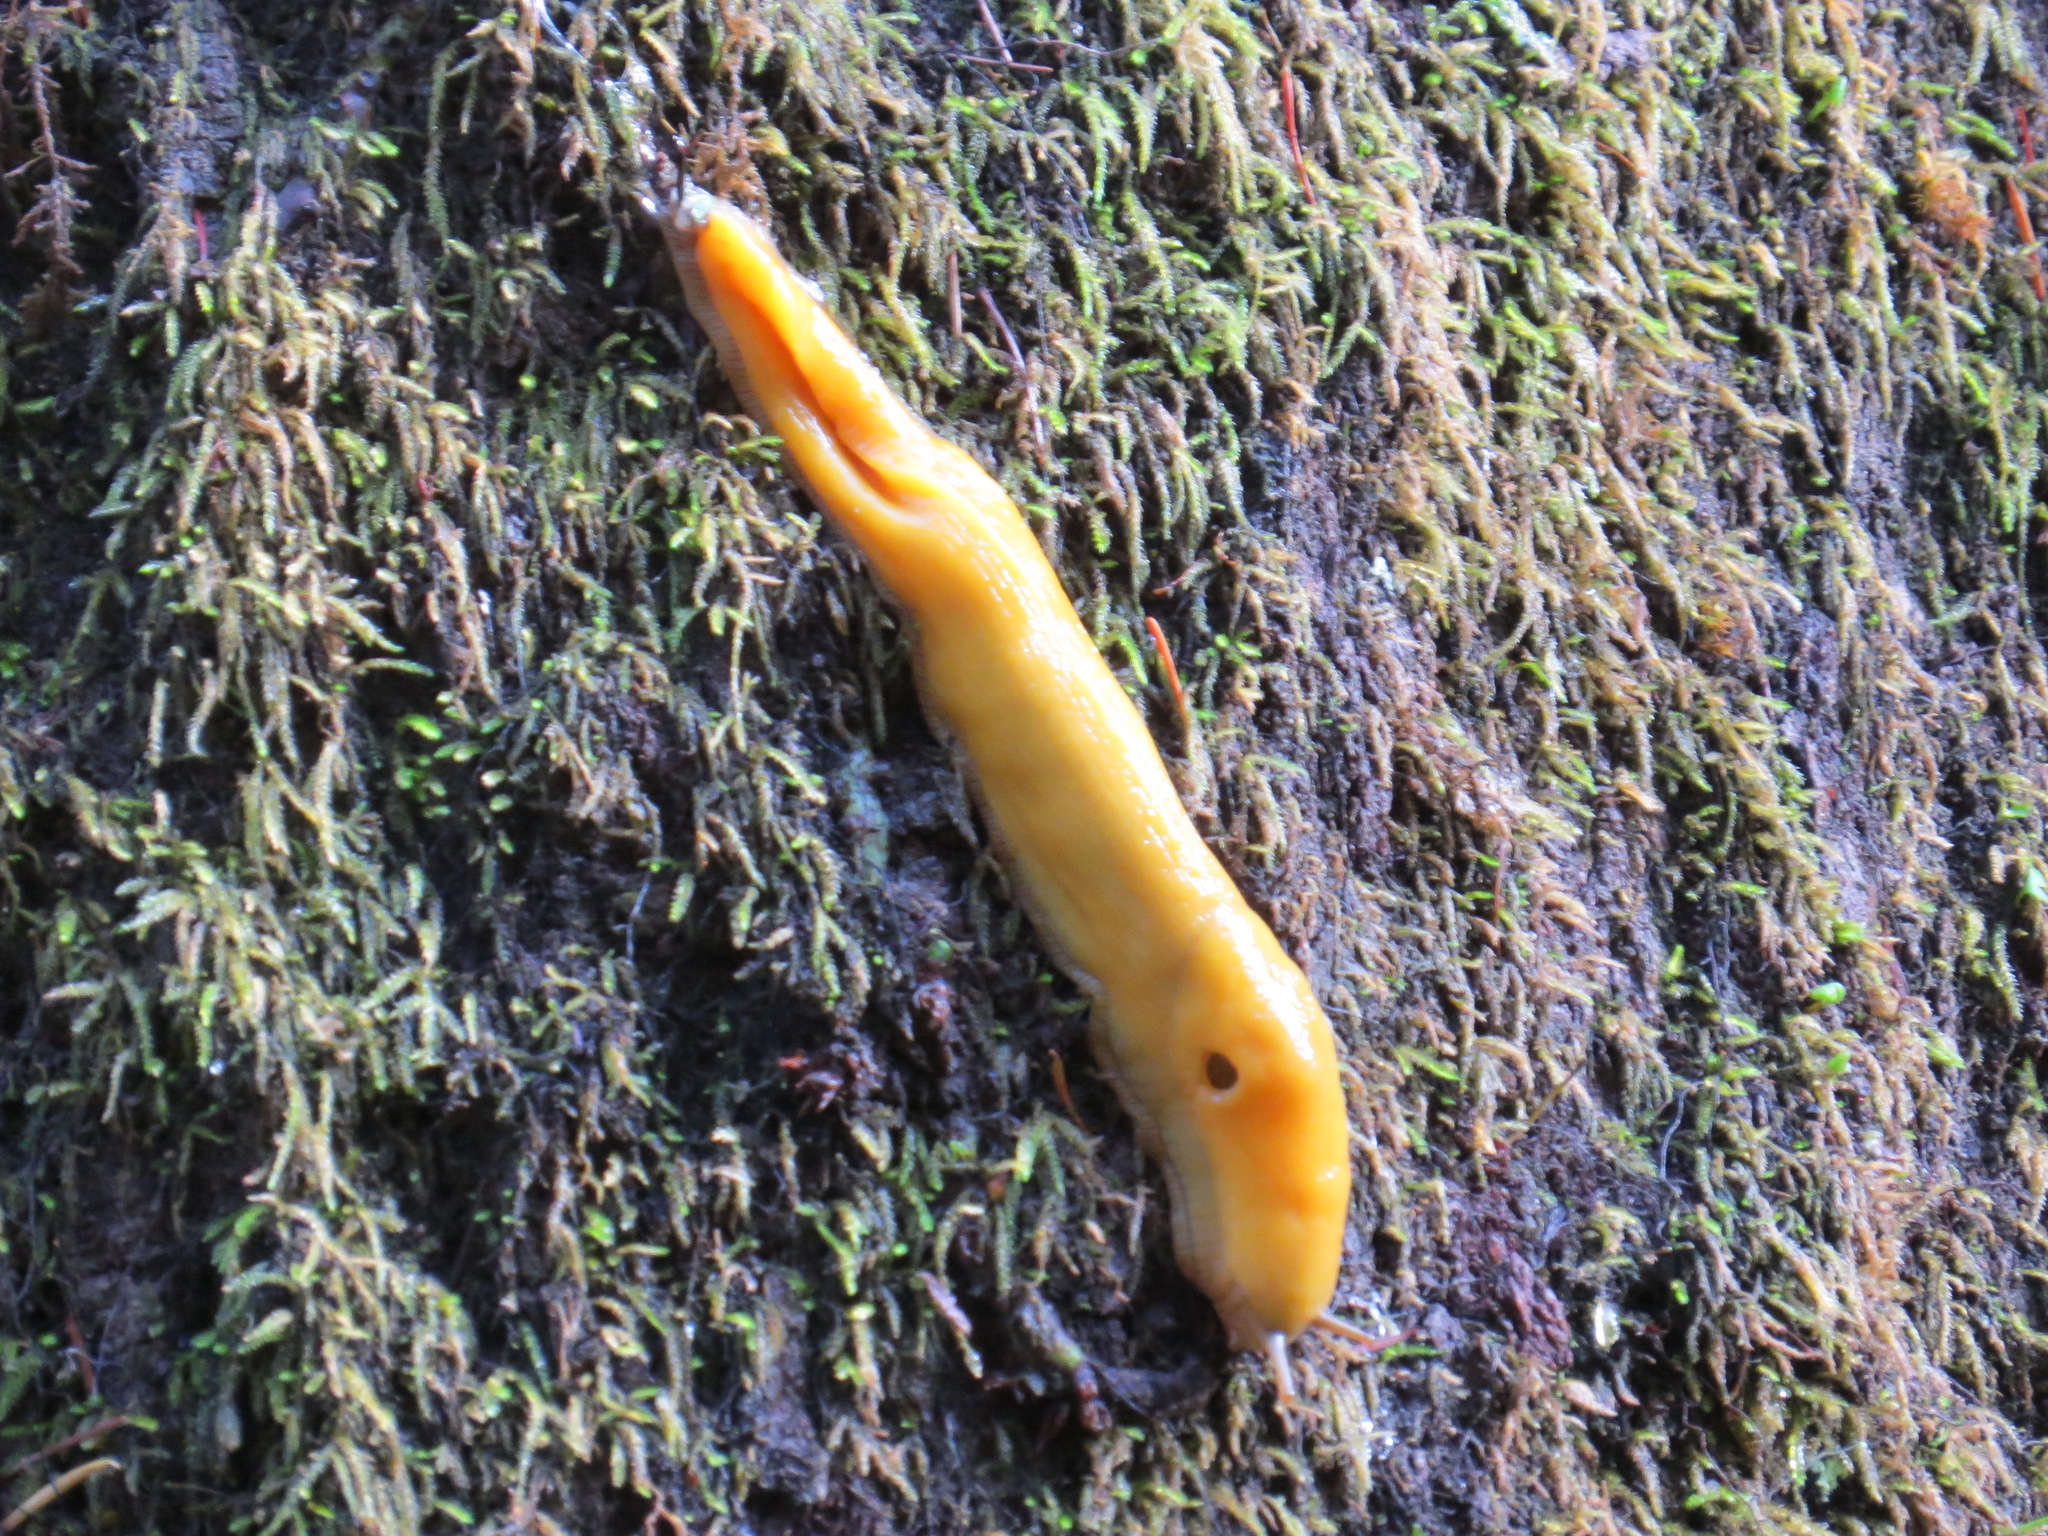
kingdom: Animalia
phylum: Mollusca
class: Gastropoda
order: Stylommatophora
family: Ariolimacidae
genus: Ariolimax
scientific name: Ariolimax californicus
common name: California banana slug
